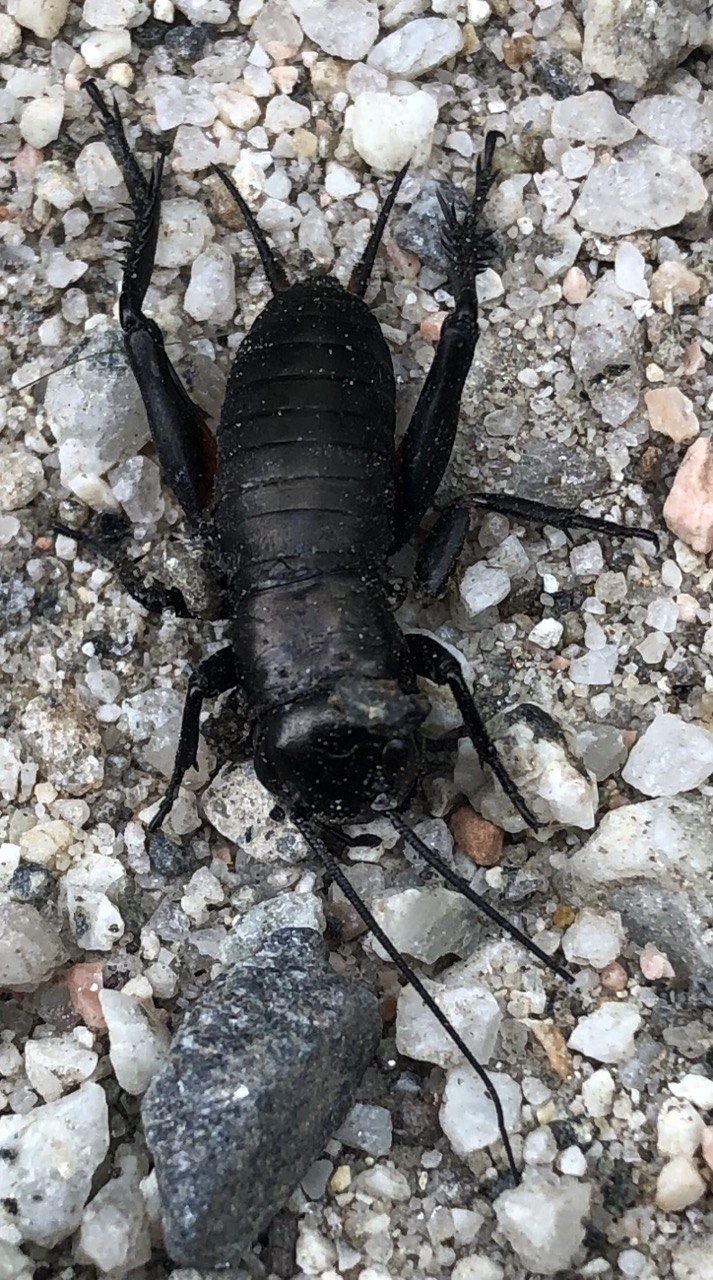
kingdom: Animalia
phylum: Arthropoda
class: Insecta
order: Orthoptera
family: Gryllidae
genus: Gryllus
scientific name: Gryllus campestris
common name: Field cricket
